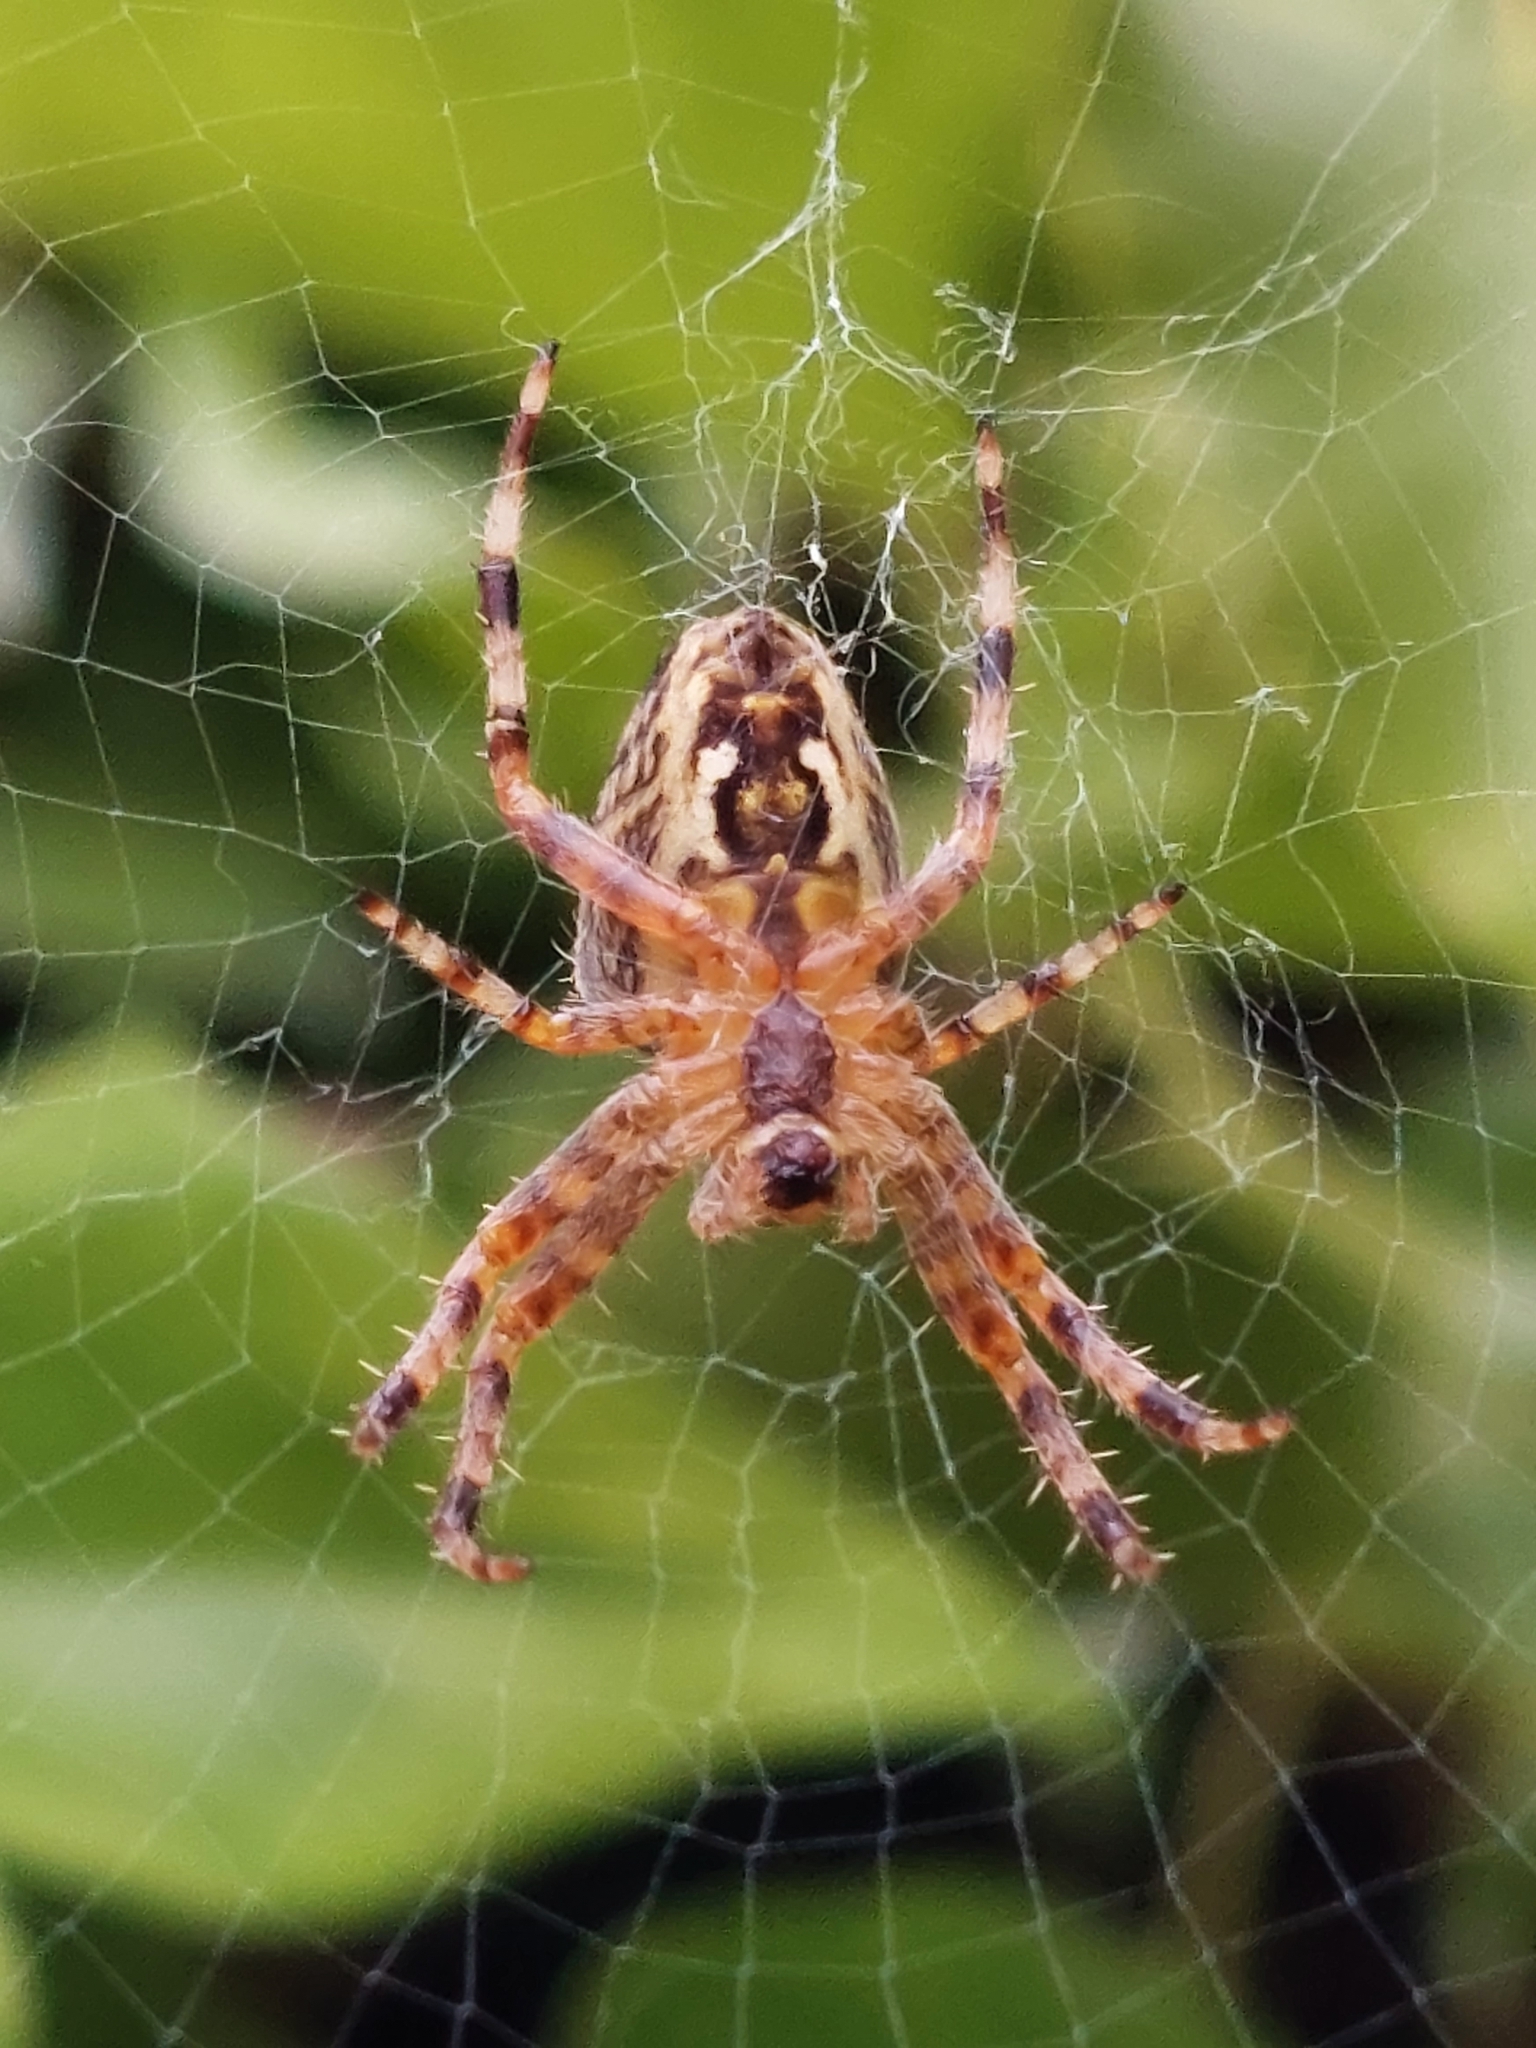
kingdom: Animalia
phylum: Arthropoda
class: Arachnida
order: Araneae
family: Araneidae
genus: Araneus
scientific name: Araneus diadematus
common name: Cross orbweaver
